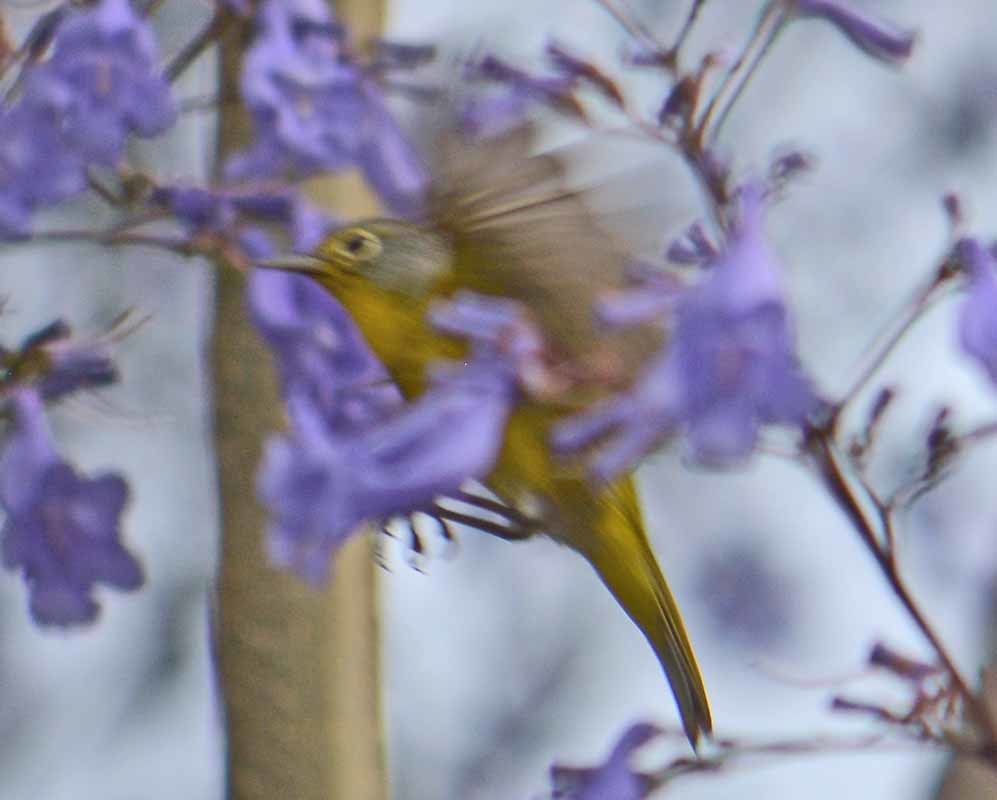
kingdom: Animalia
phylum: Chordata
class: Aves
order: Passeriformes
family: Parulidae
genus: Leiothlypis
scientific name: Leiothlypis ruficapilla
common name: Nashville warbler
